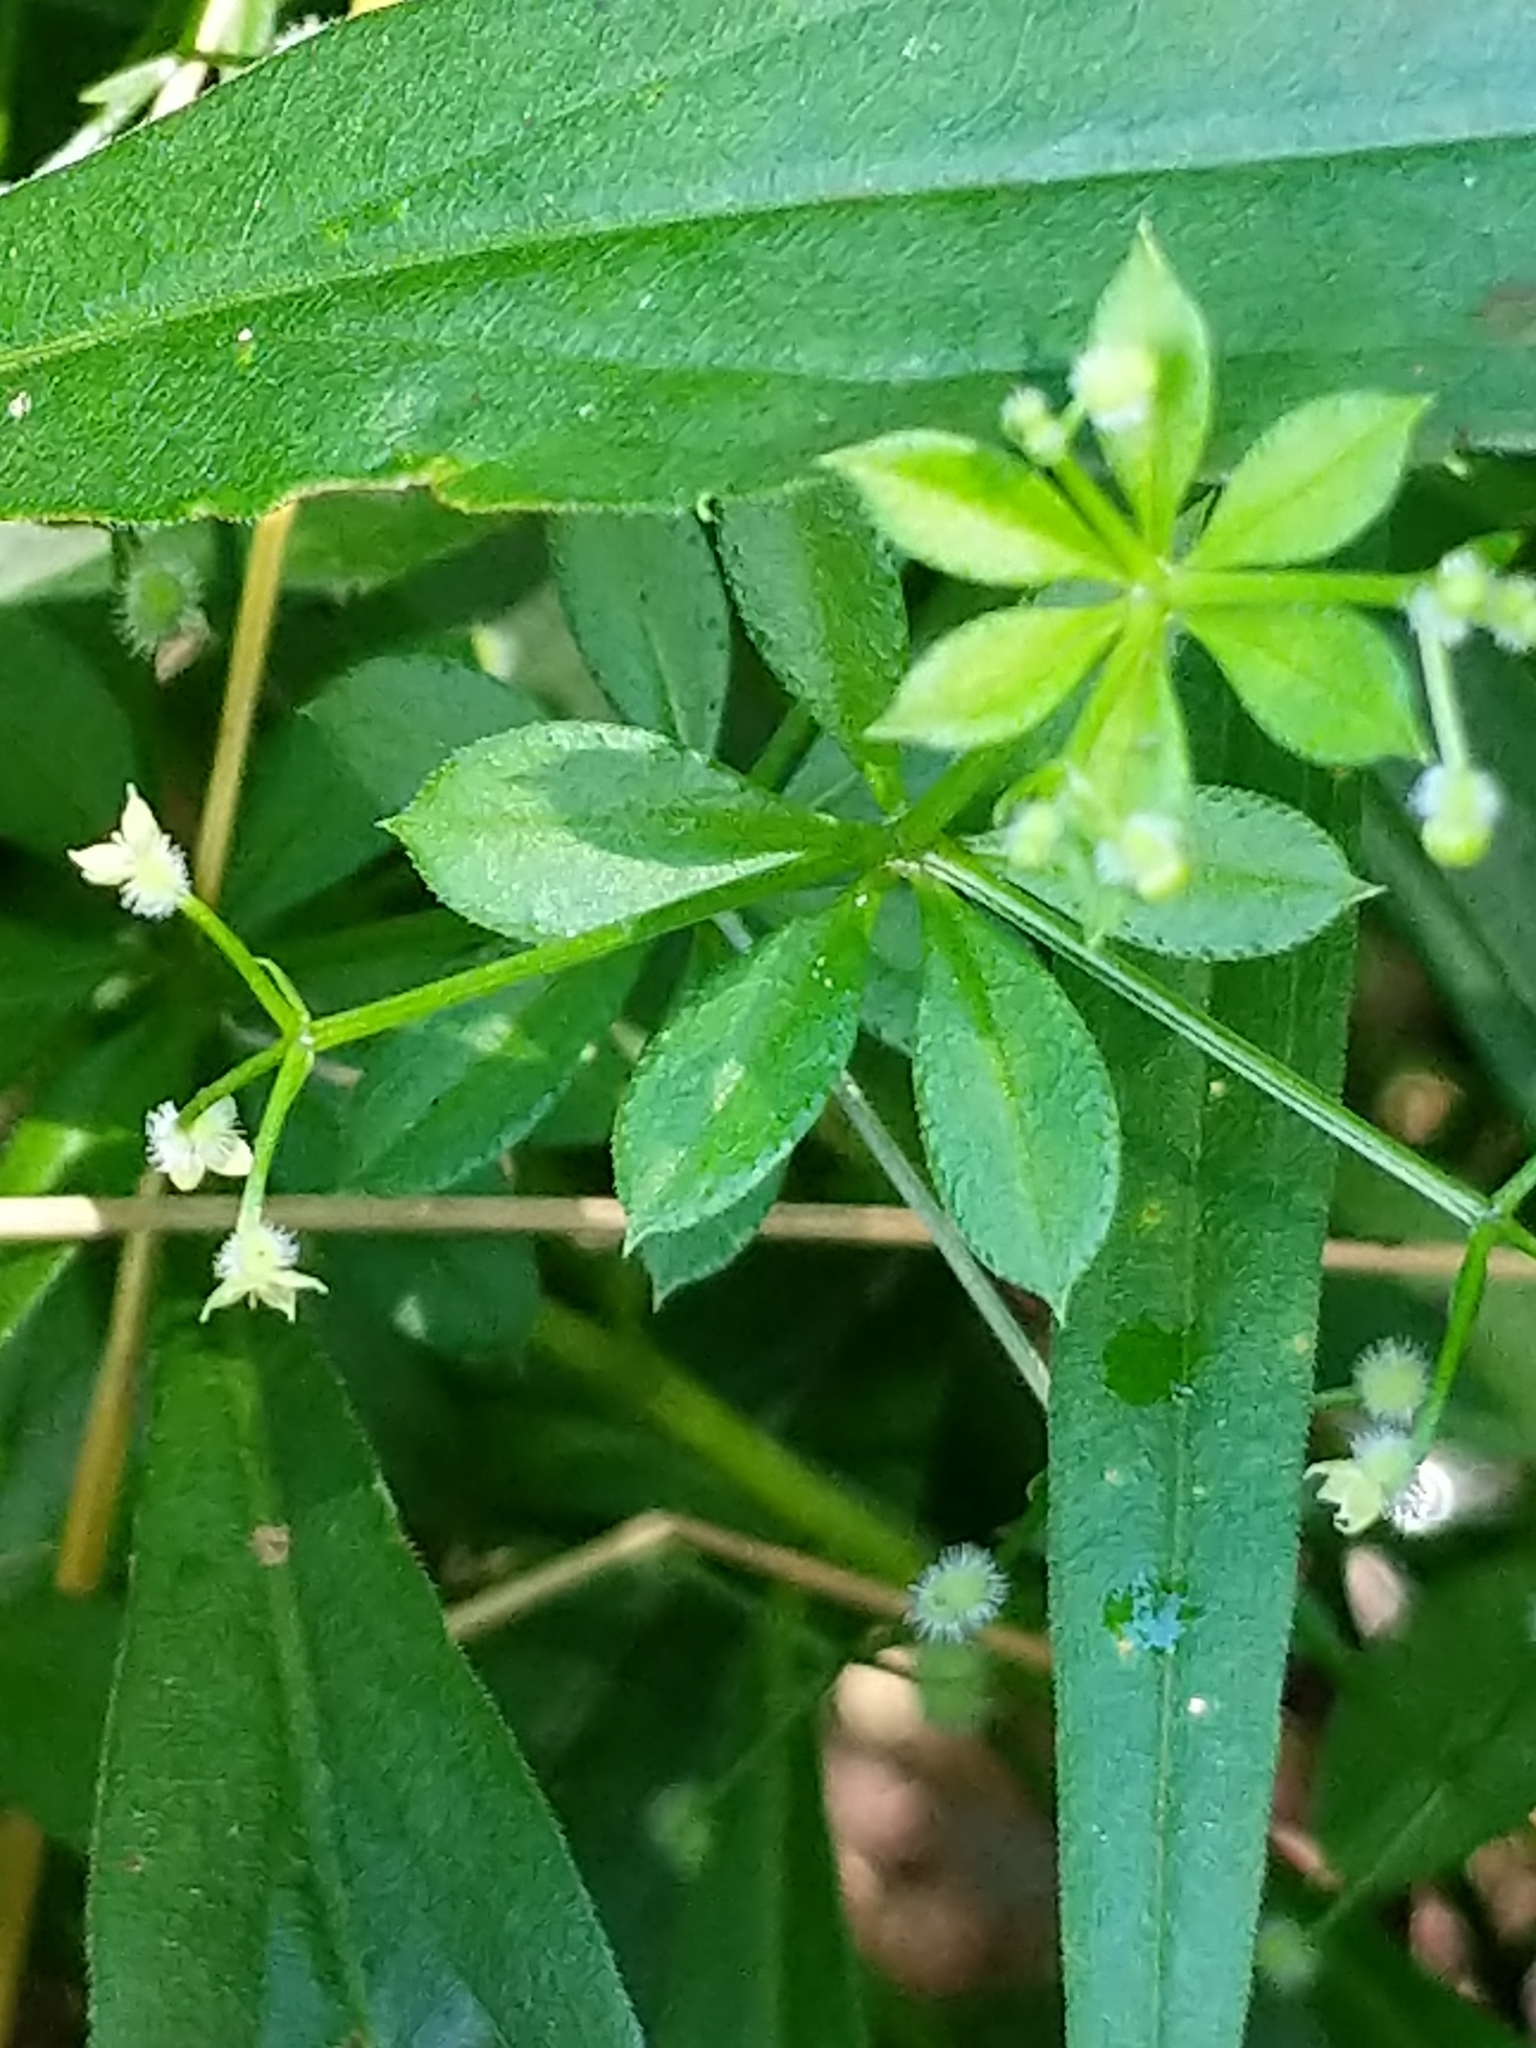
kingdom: Plantae
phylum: Tracheophyta
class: Magnoliopsida
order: Gentianales
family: Rubiaceae
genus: Galium
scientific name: Galium triflorum
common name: Fragrant bedstraw
